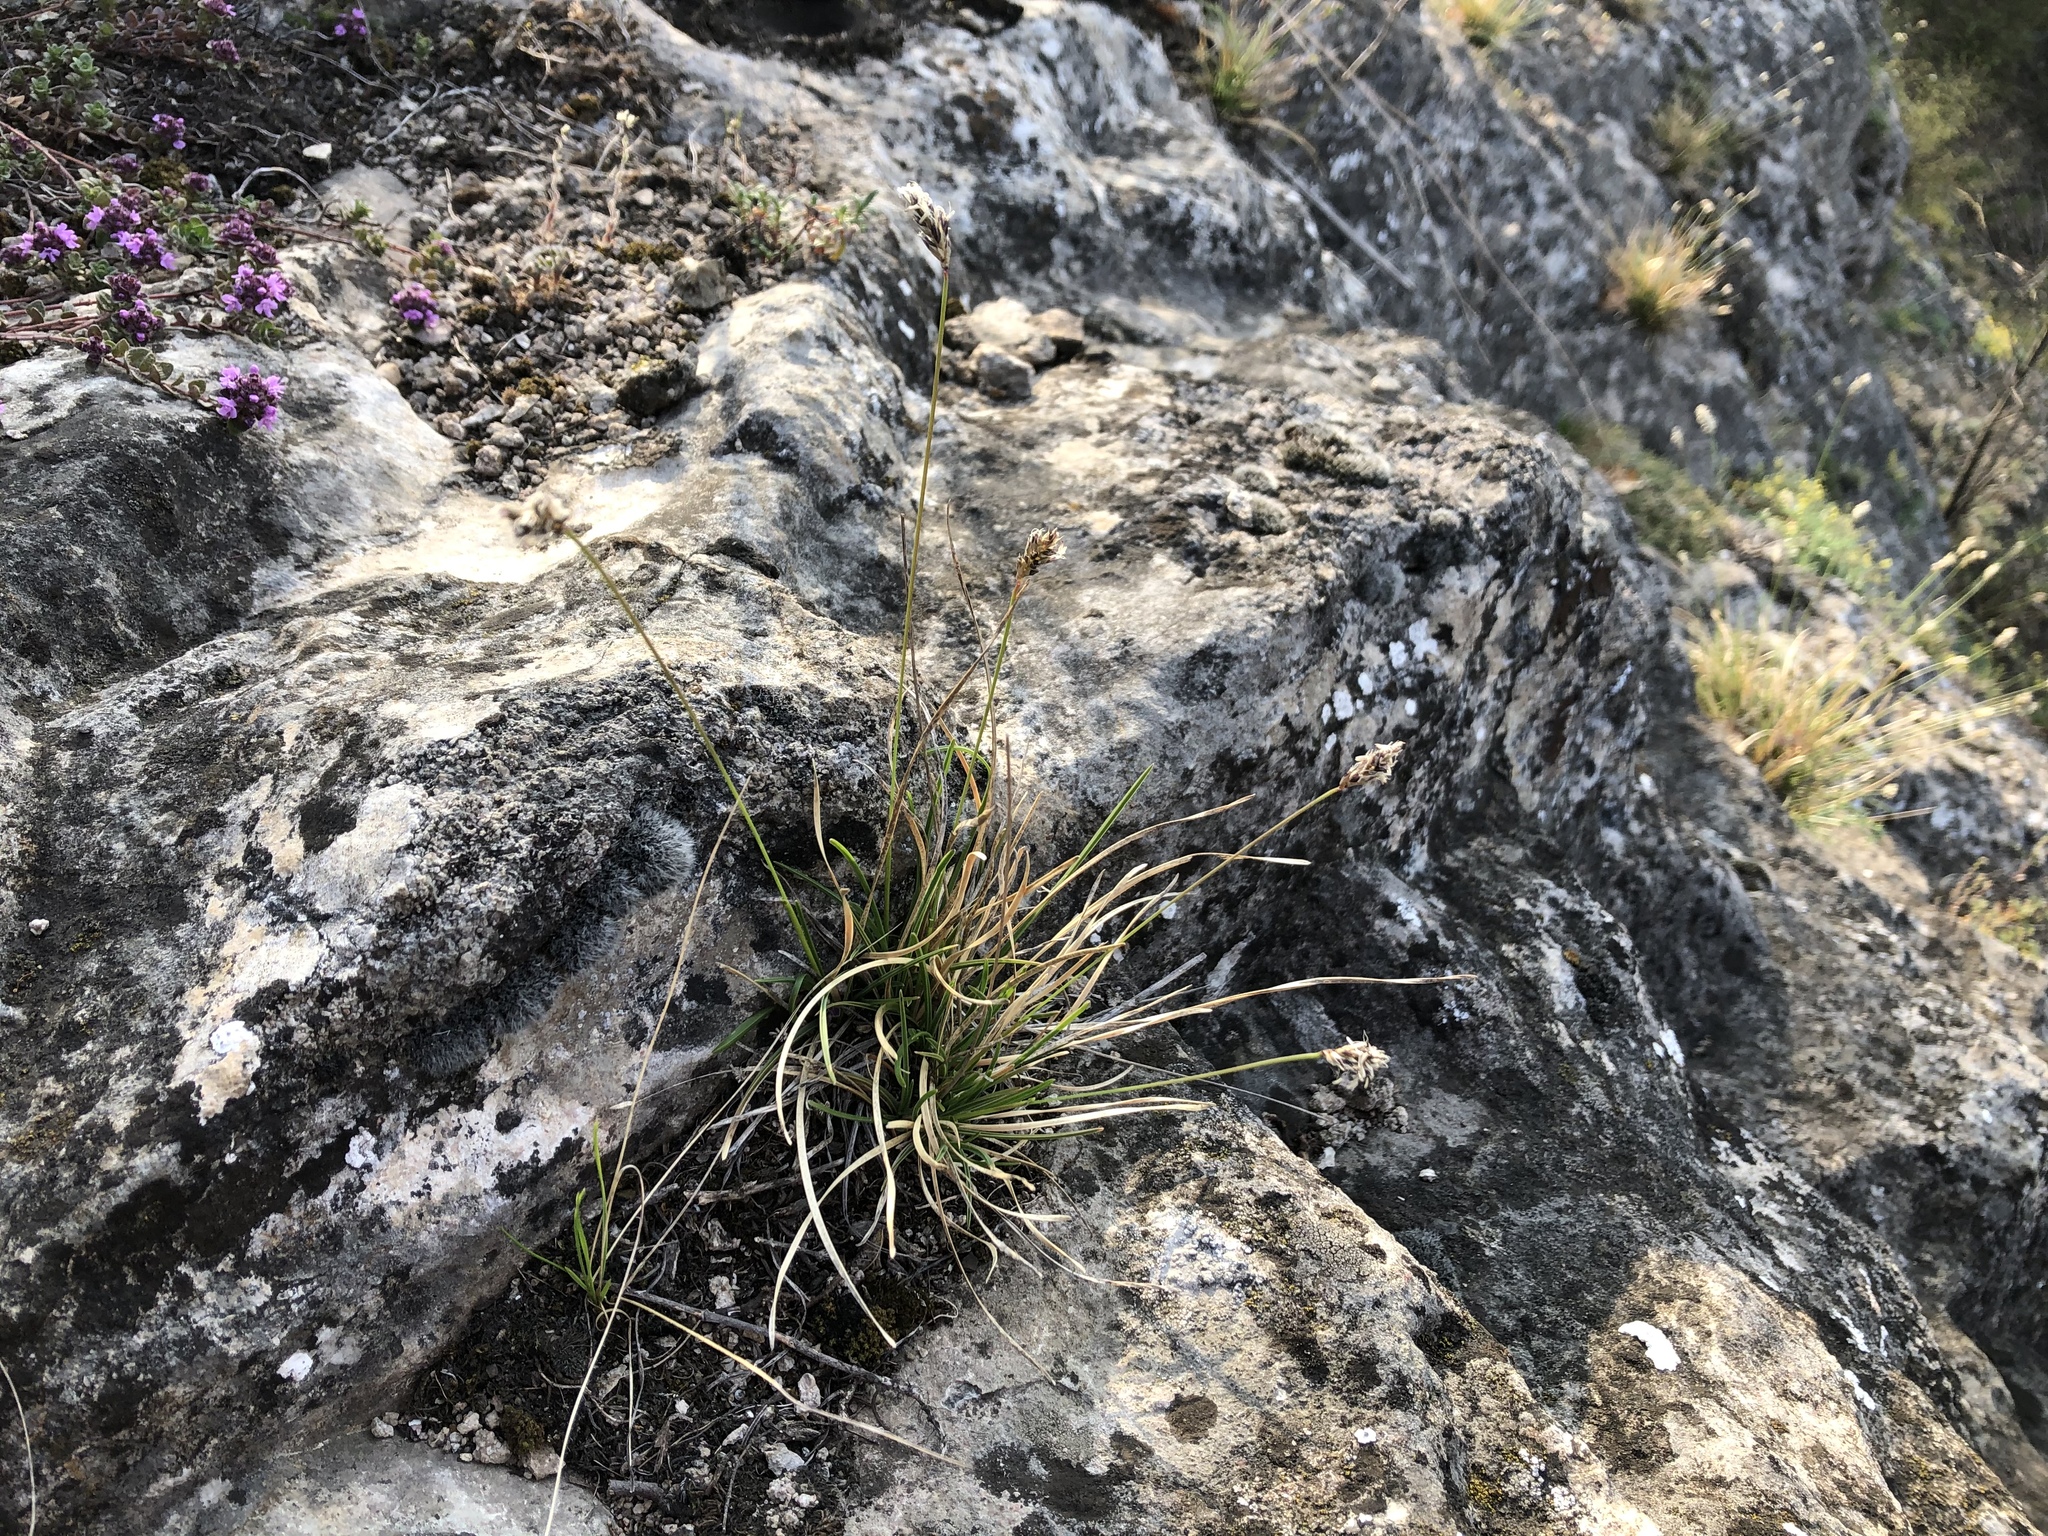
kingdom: Plantae
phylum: Tracheophyta
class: Liliopsida
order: Poales
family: Poaceae
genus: Sesleria
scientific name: Sesleria caerulea
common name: Blue moor-grass
